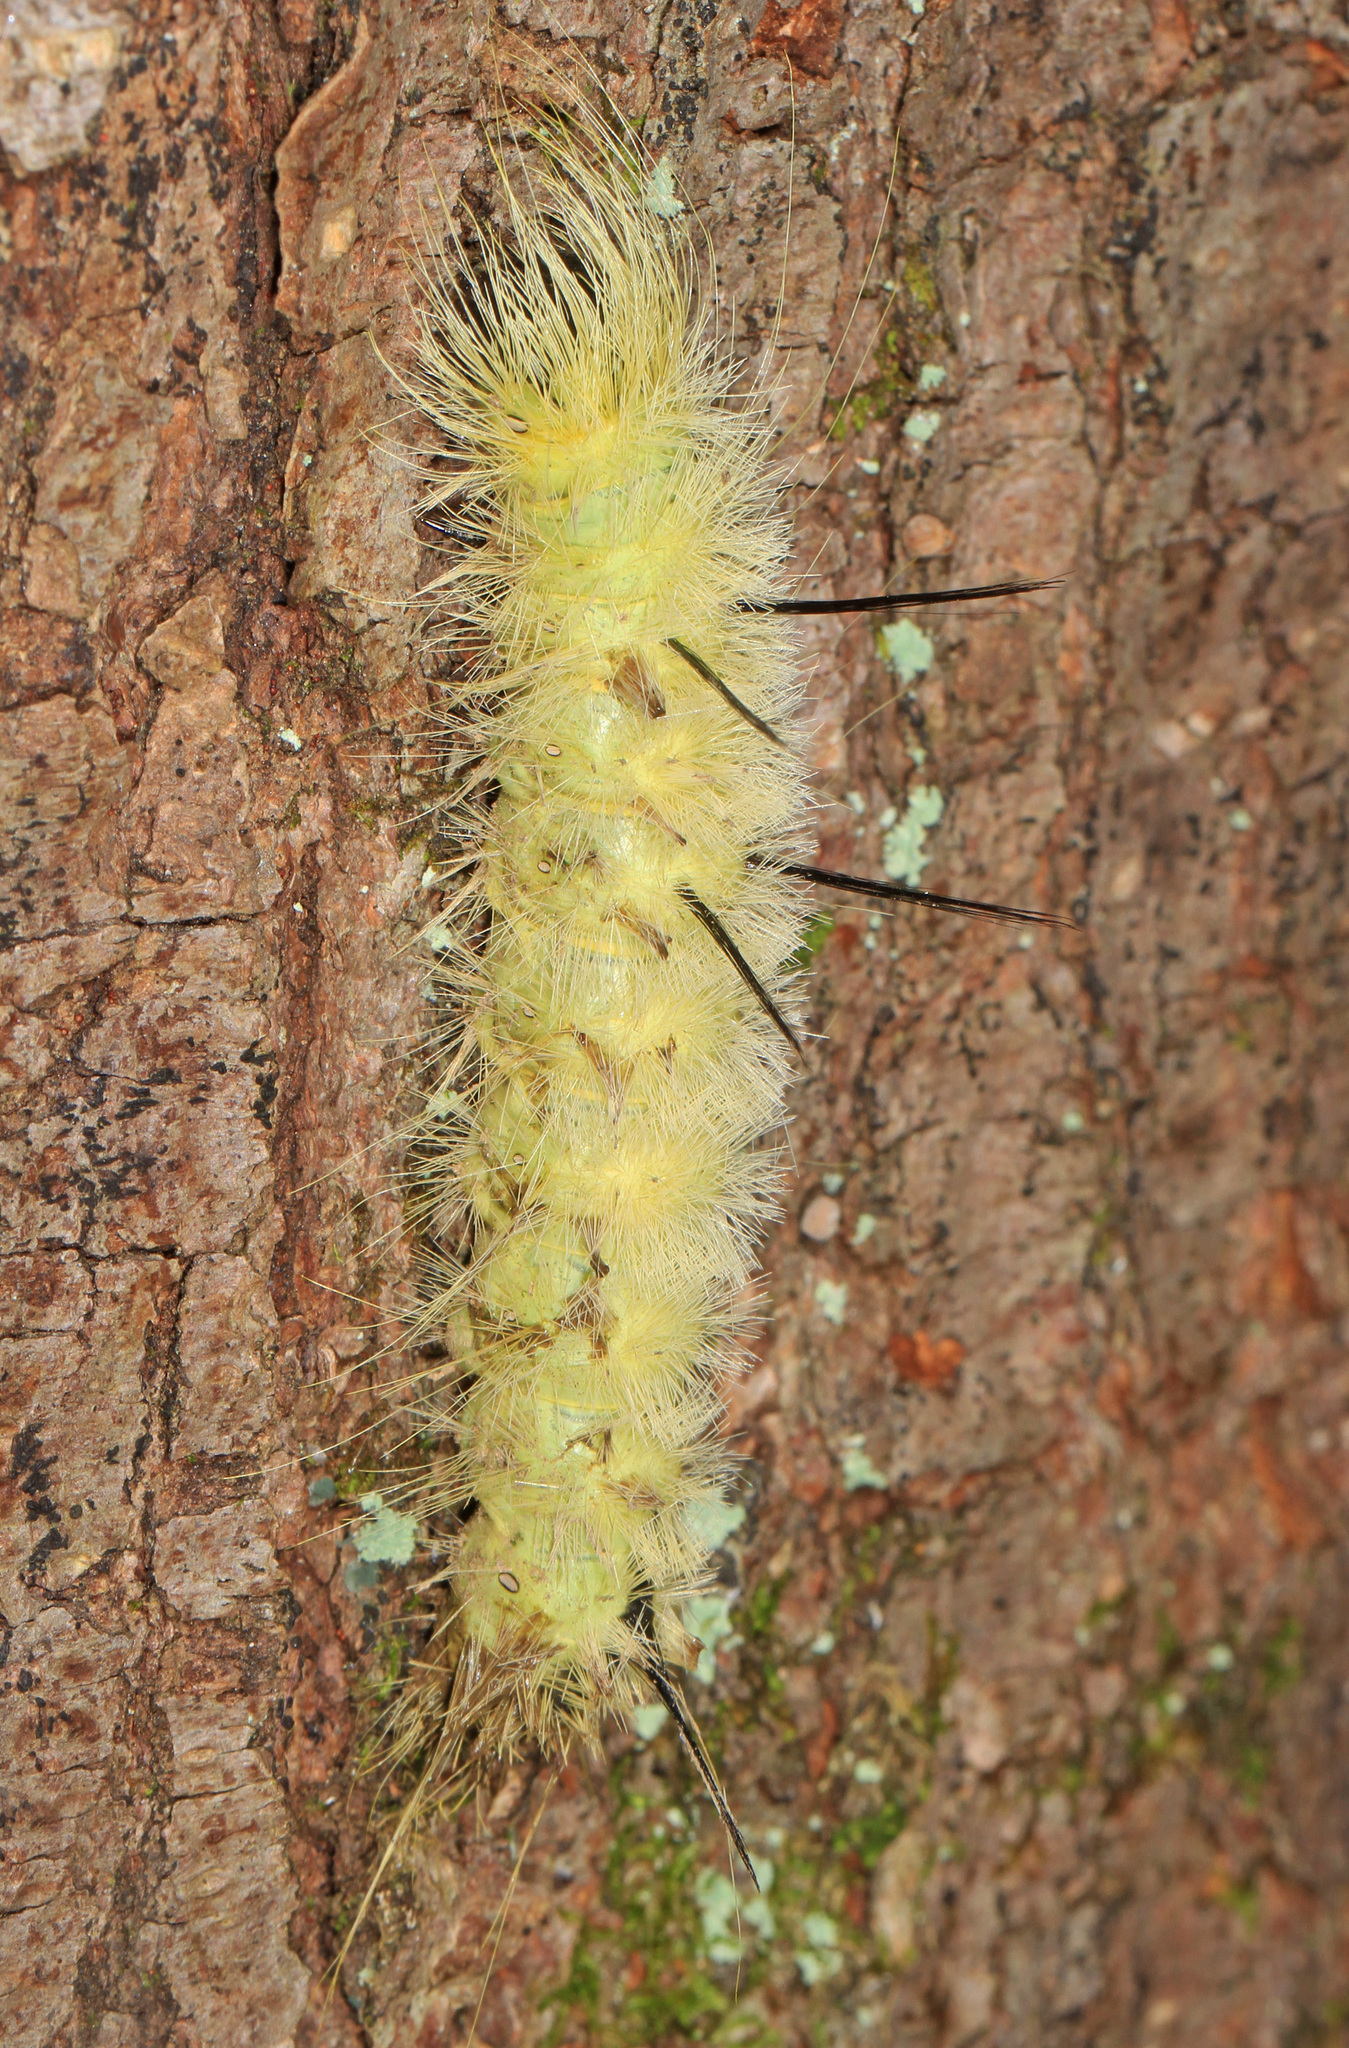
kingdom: Animalia
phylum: Arthropoda
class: Insecta
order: Lepidoptera
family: Noctuidae
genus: Acronicta
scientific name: Acronicta americana
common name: American dagger
